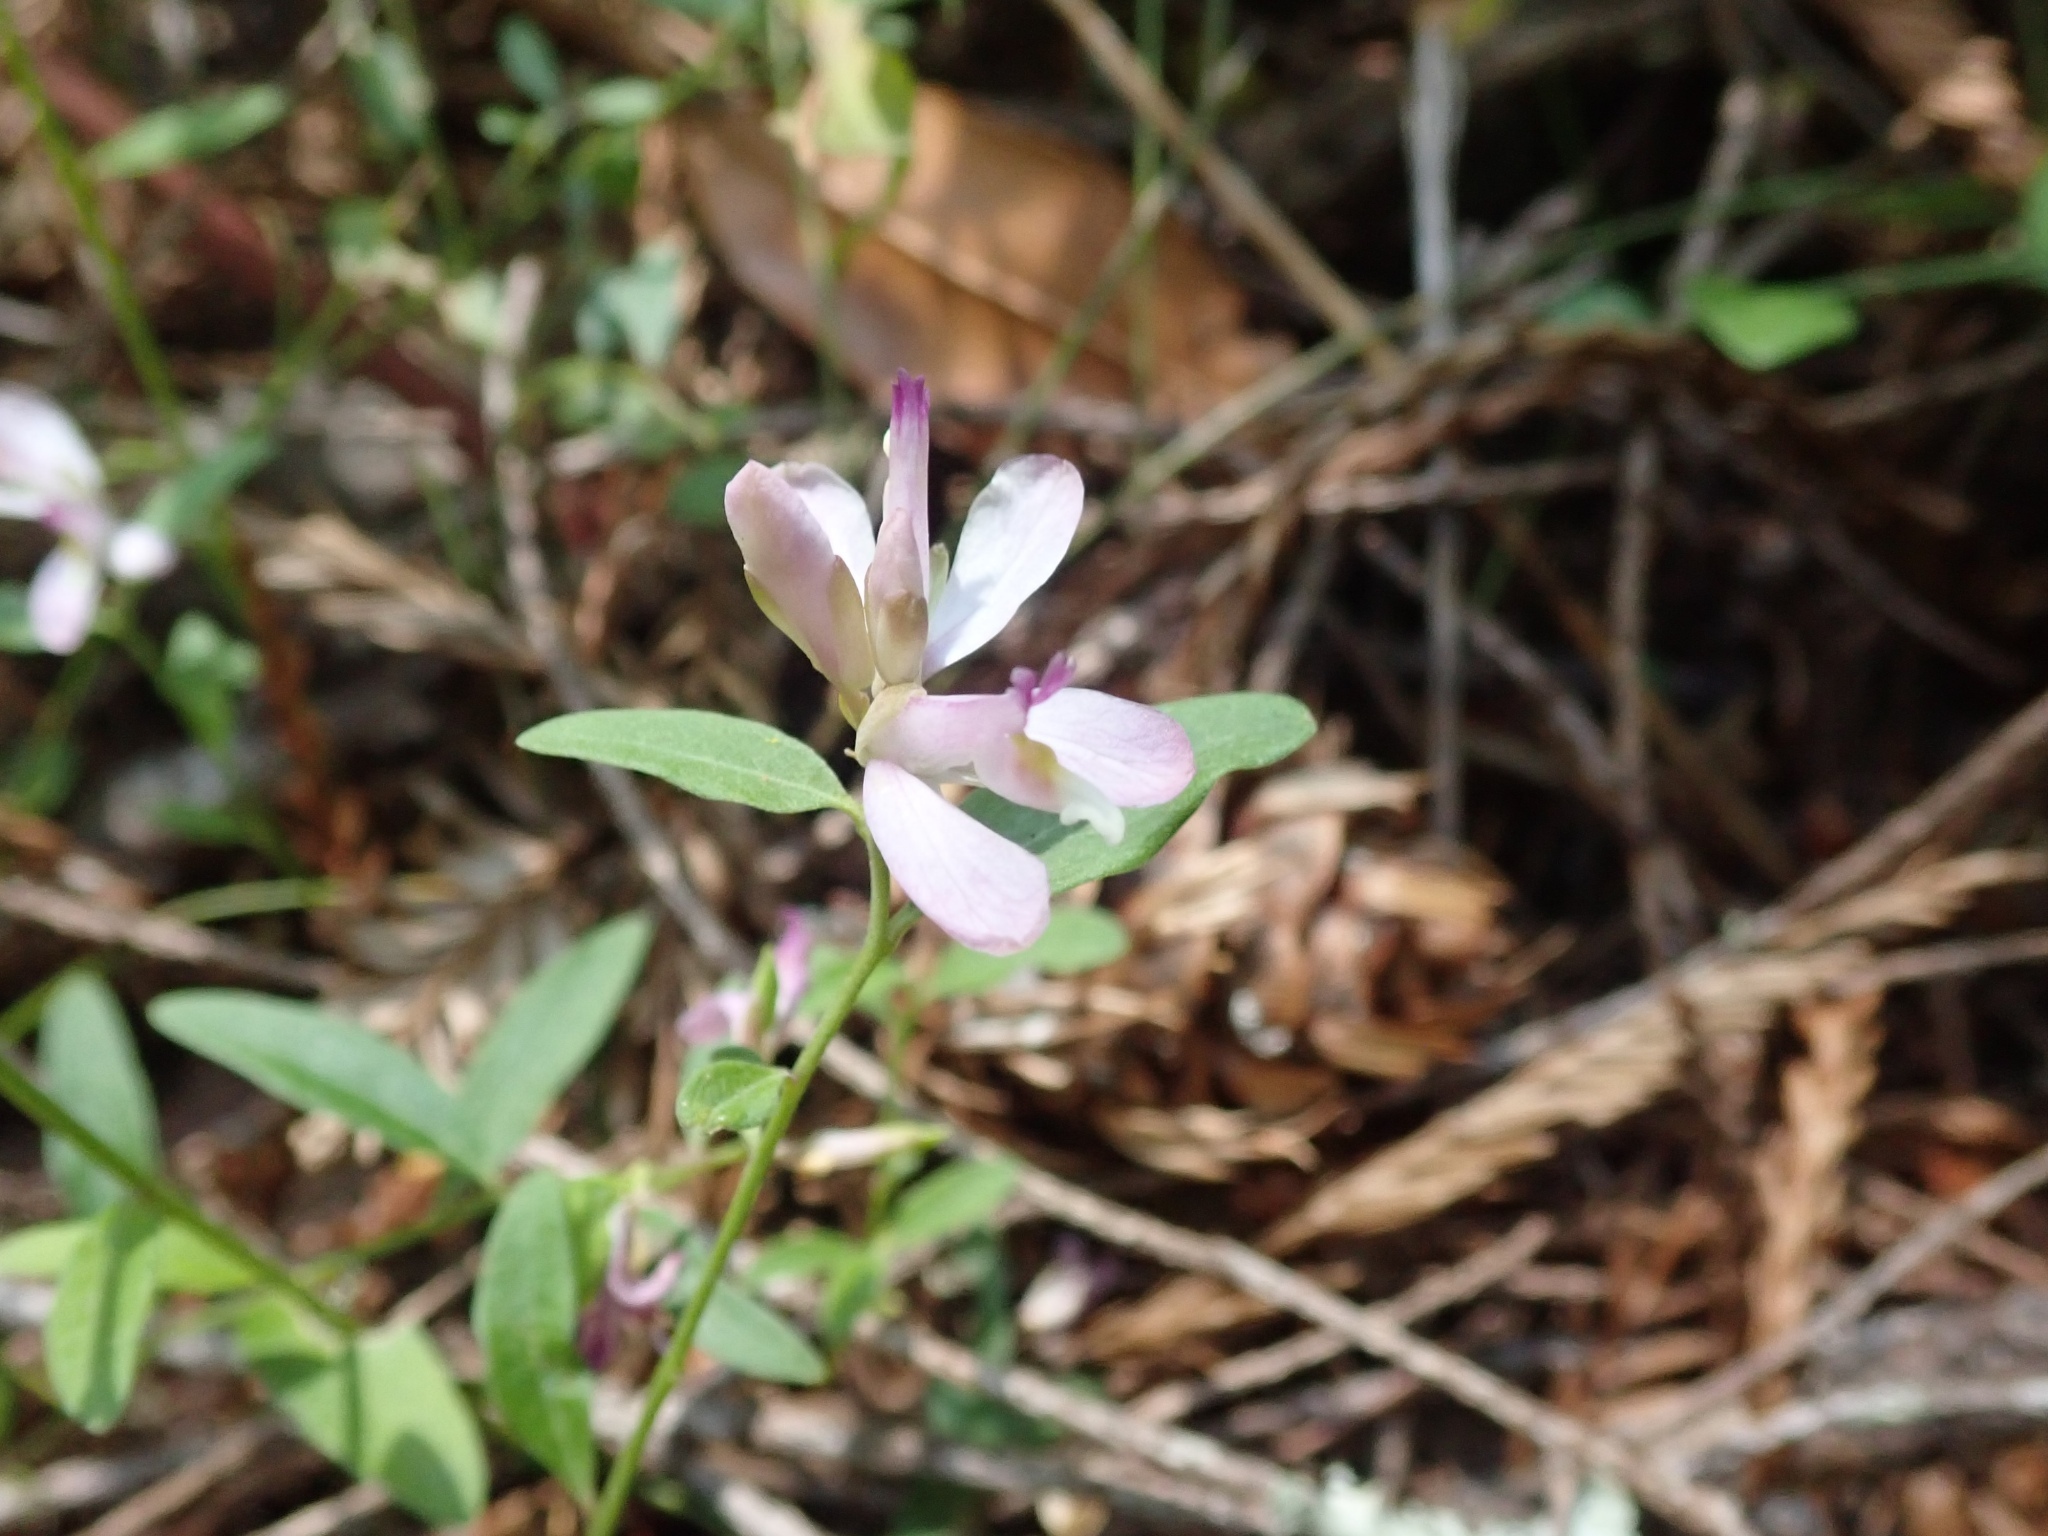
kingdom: Plantae
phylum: Tracheophyta
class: Magnoliopsida
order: Fabales
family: Polygalaceae
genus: Rhinotropis
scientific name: Rhinotropis californica
